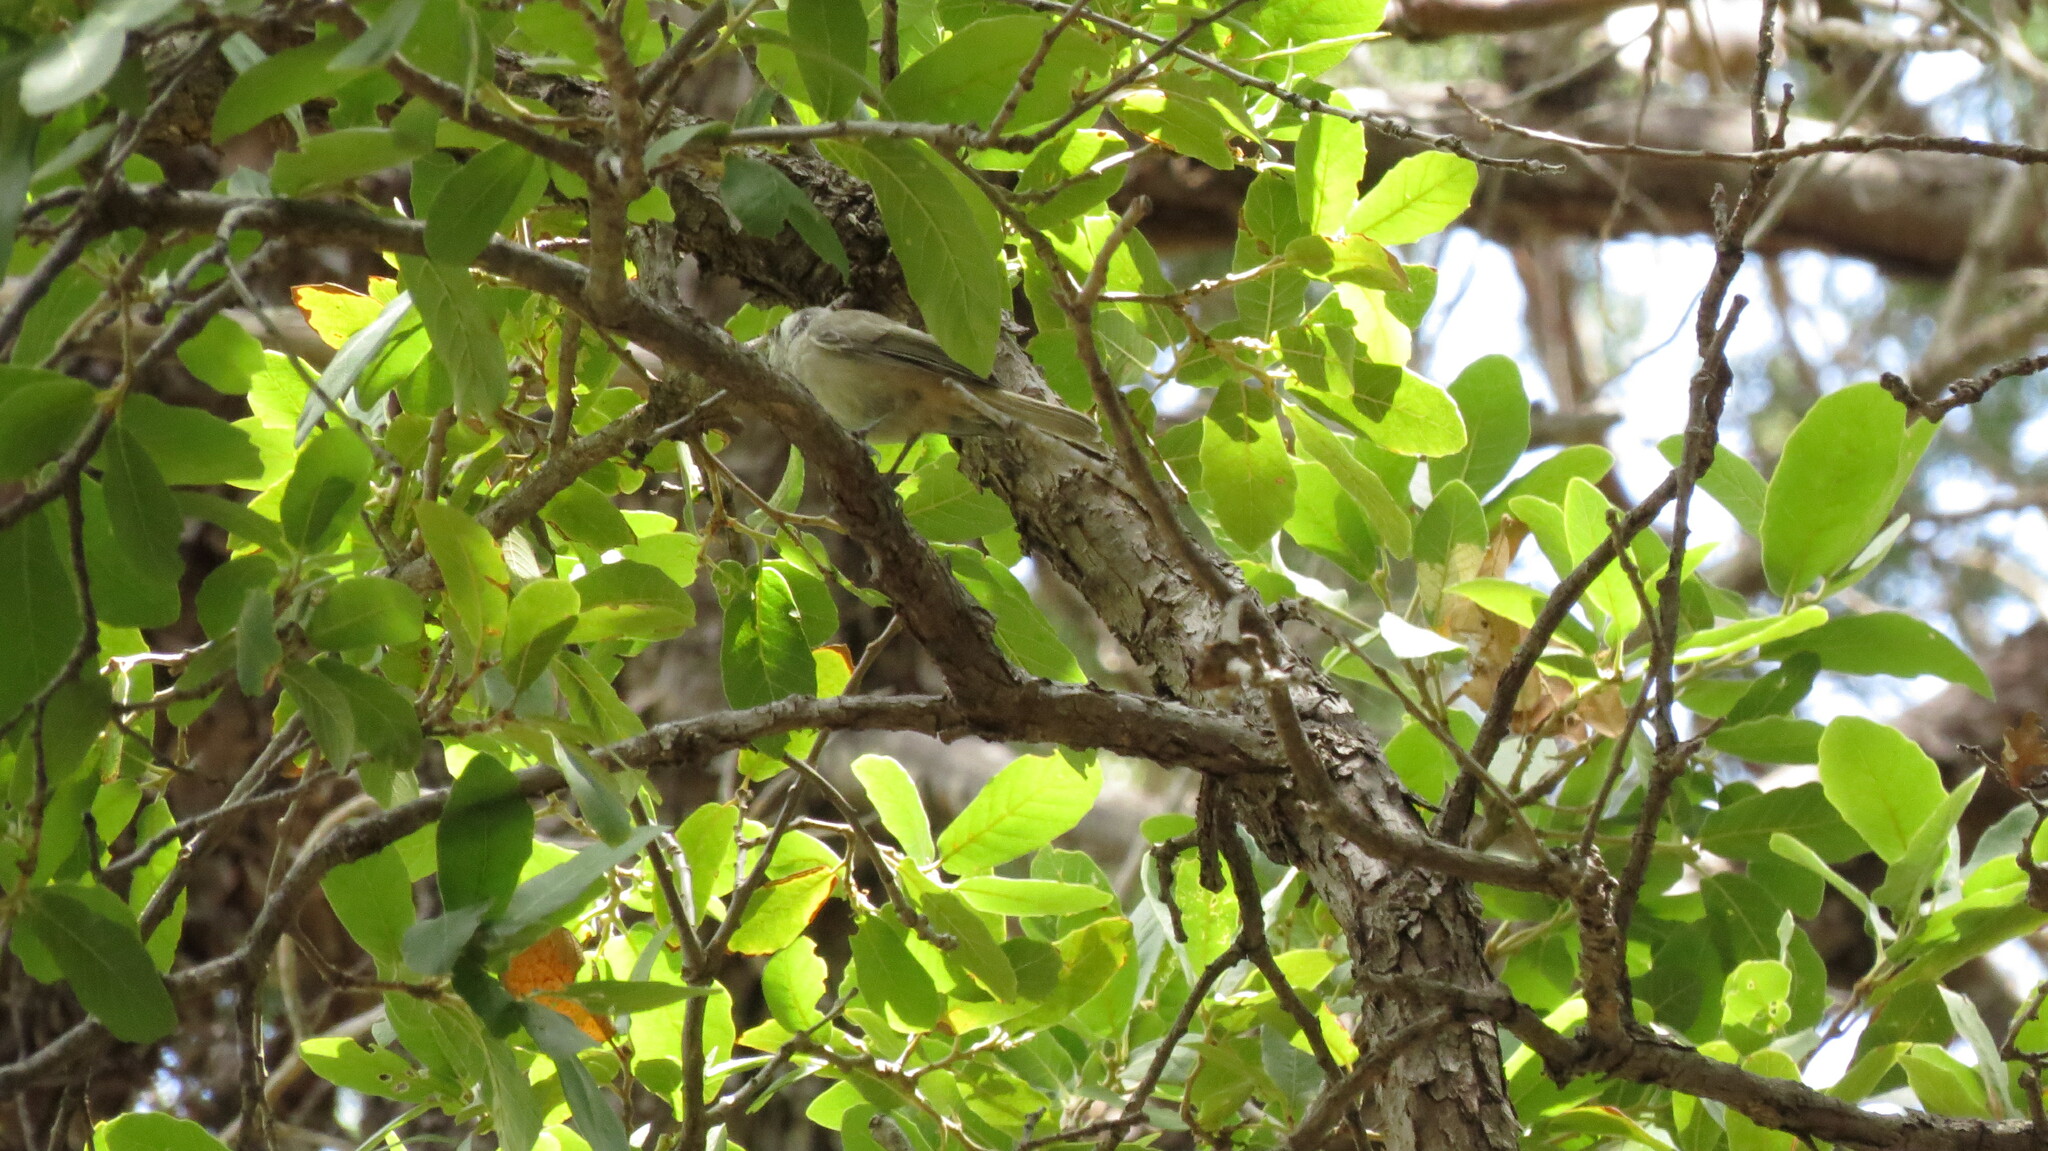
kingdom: Animalia
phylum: Chordata
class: Aves
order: Passeriformes
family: Paridae
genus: Baeolophus
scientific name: Baeolophus wollweberi
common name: Bridled titmouse
